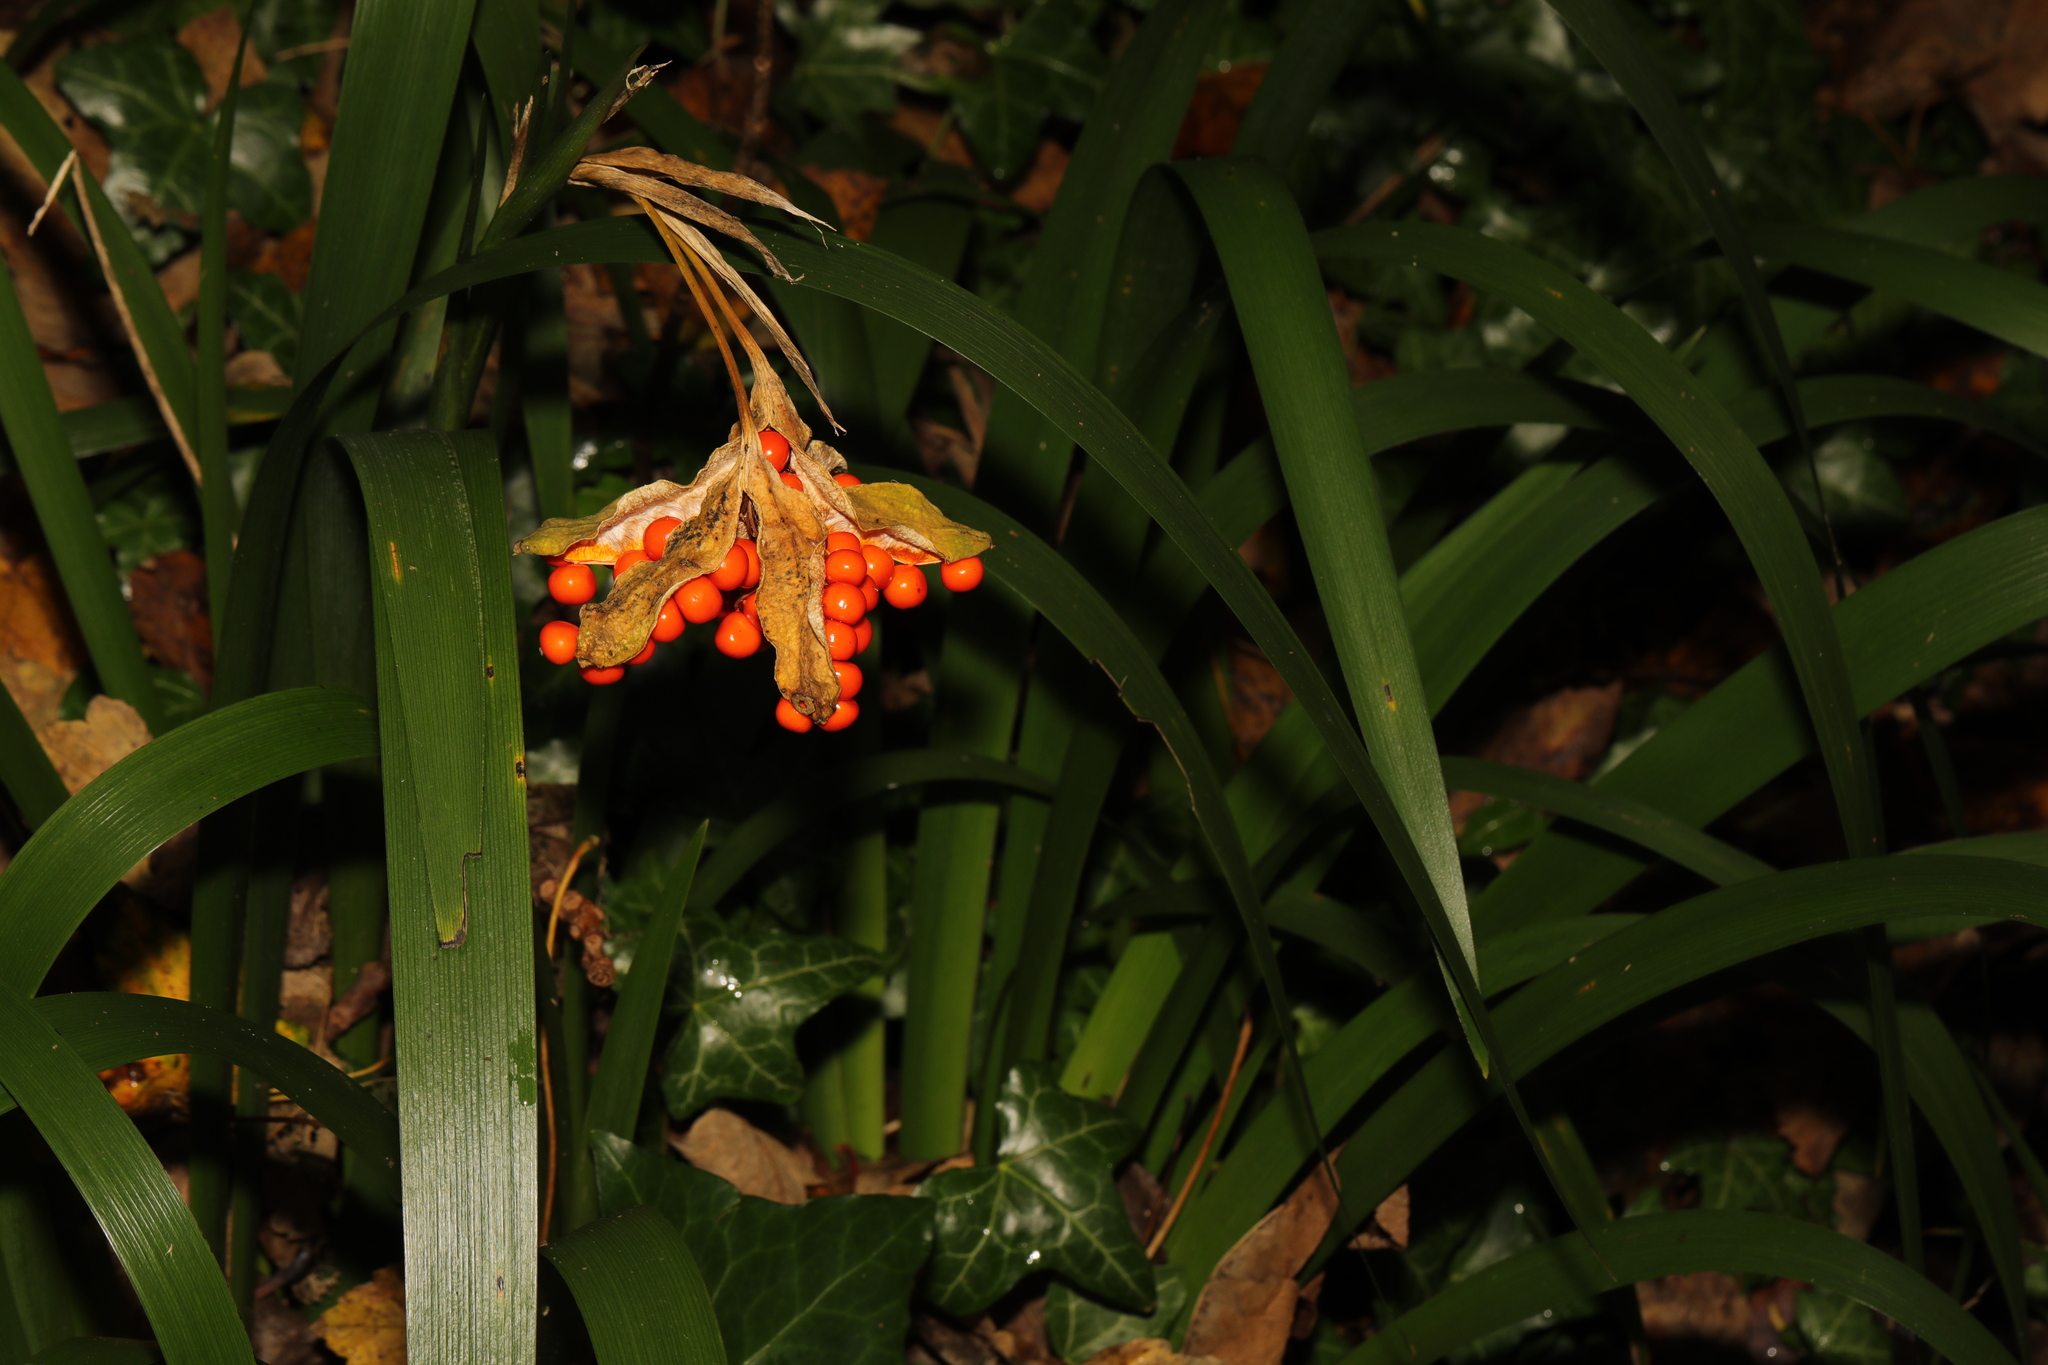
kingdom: Plantae
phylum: Tracheophyta
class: Liliopsida
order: Asparagales
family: Iridaceae
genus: Iris
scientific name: Iris foetidissima
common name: Stinking iris
